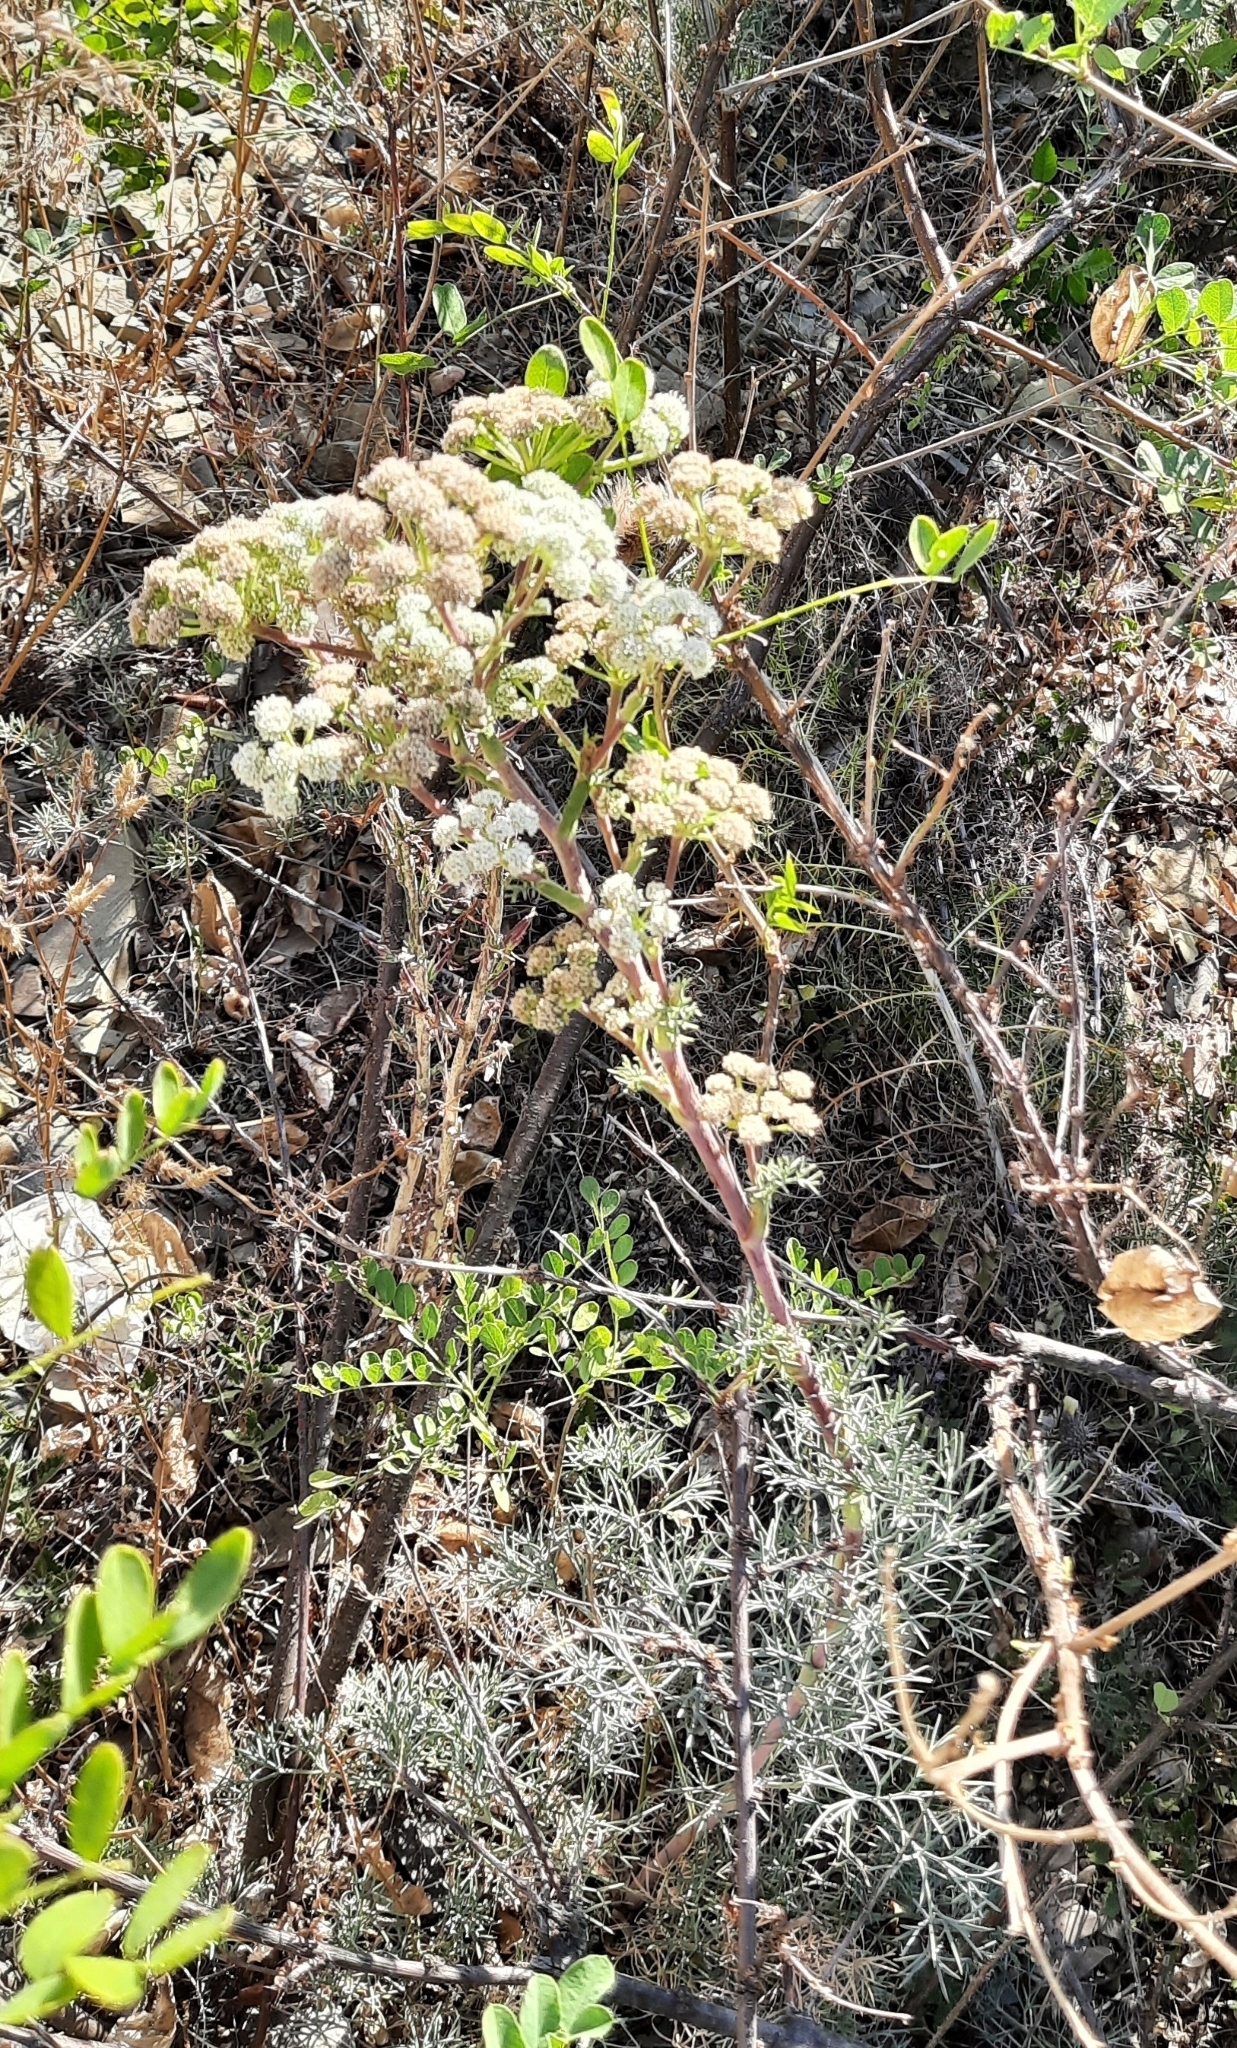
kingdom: Plantae
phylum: Tracheophyta
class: Magnoliopsida
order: Apiales
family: Apiaceae
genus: Seseli
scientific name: Seseli ponticum
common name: Pontic seseli
